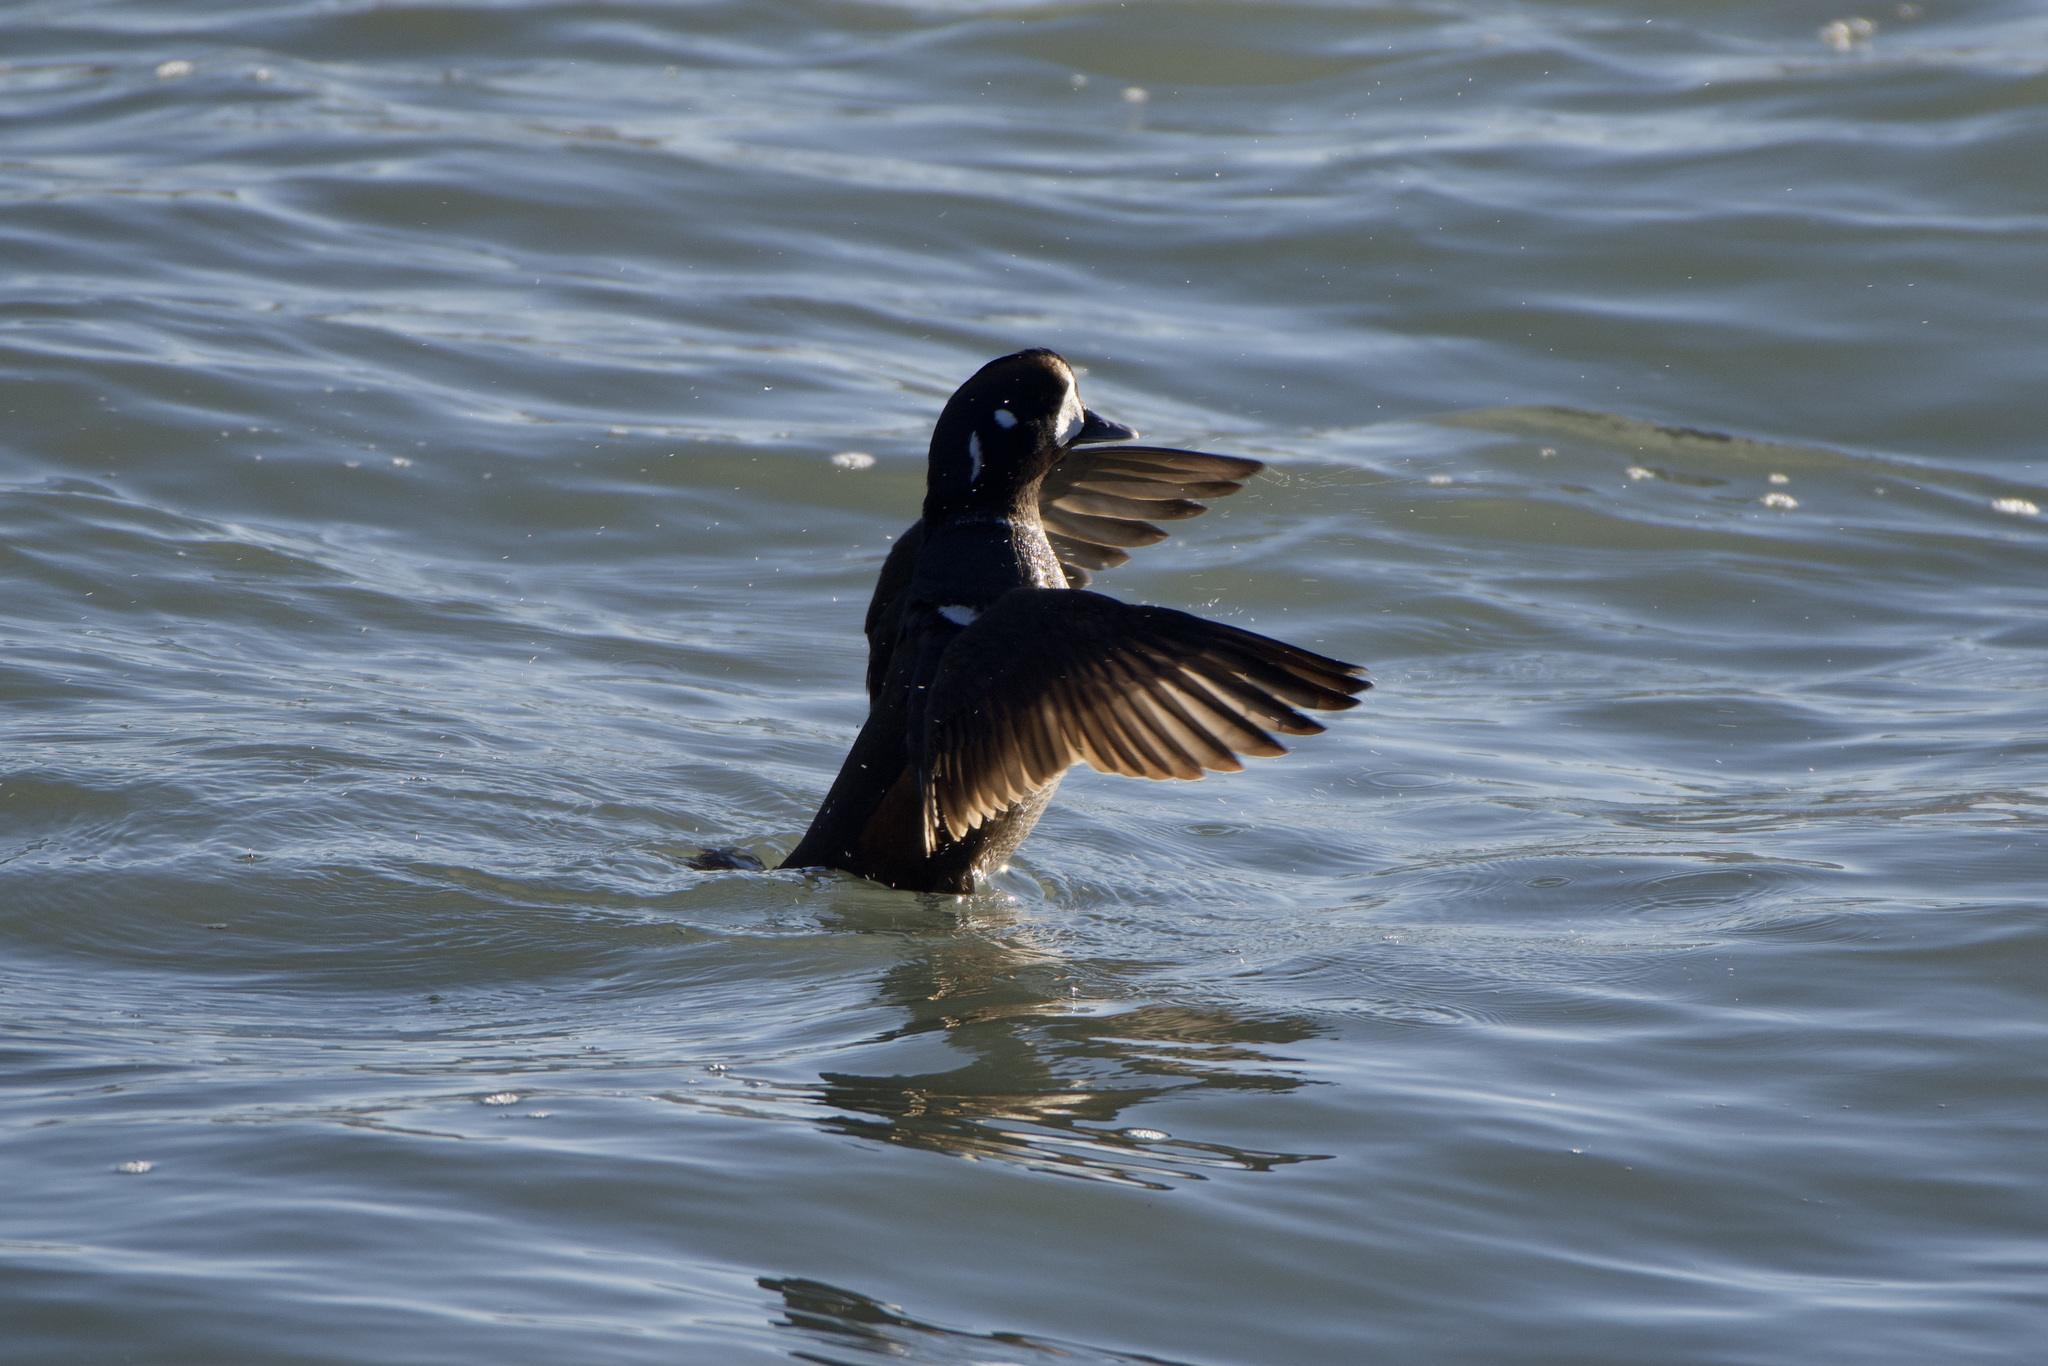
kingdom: Animalia
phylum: Chordata
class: Aves
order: Anseriformes
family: Anatidae
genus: Histrionicus
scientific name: Histrionicus histrionicus
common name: Harlequin duck
